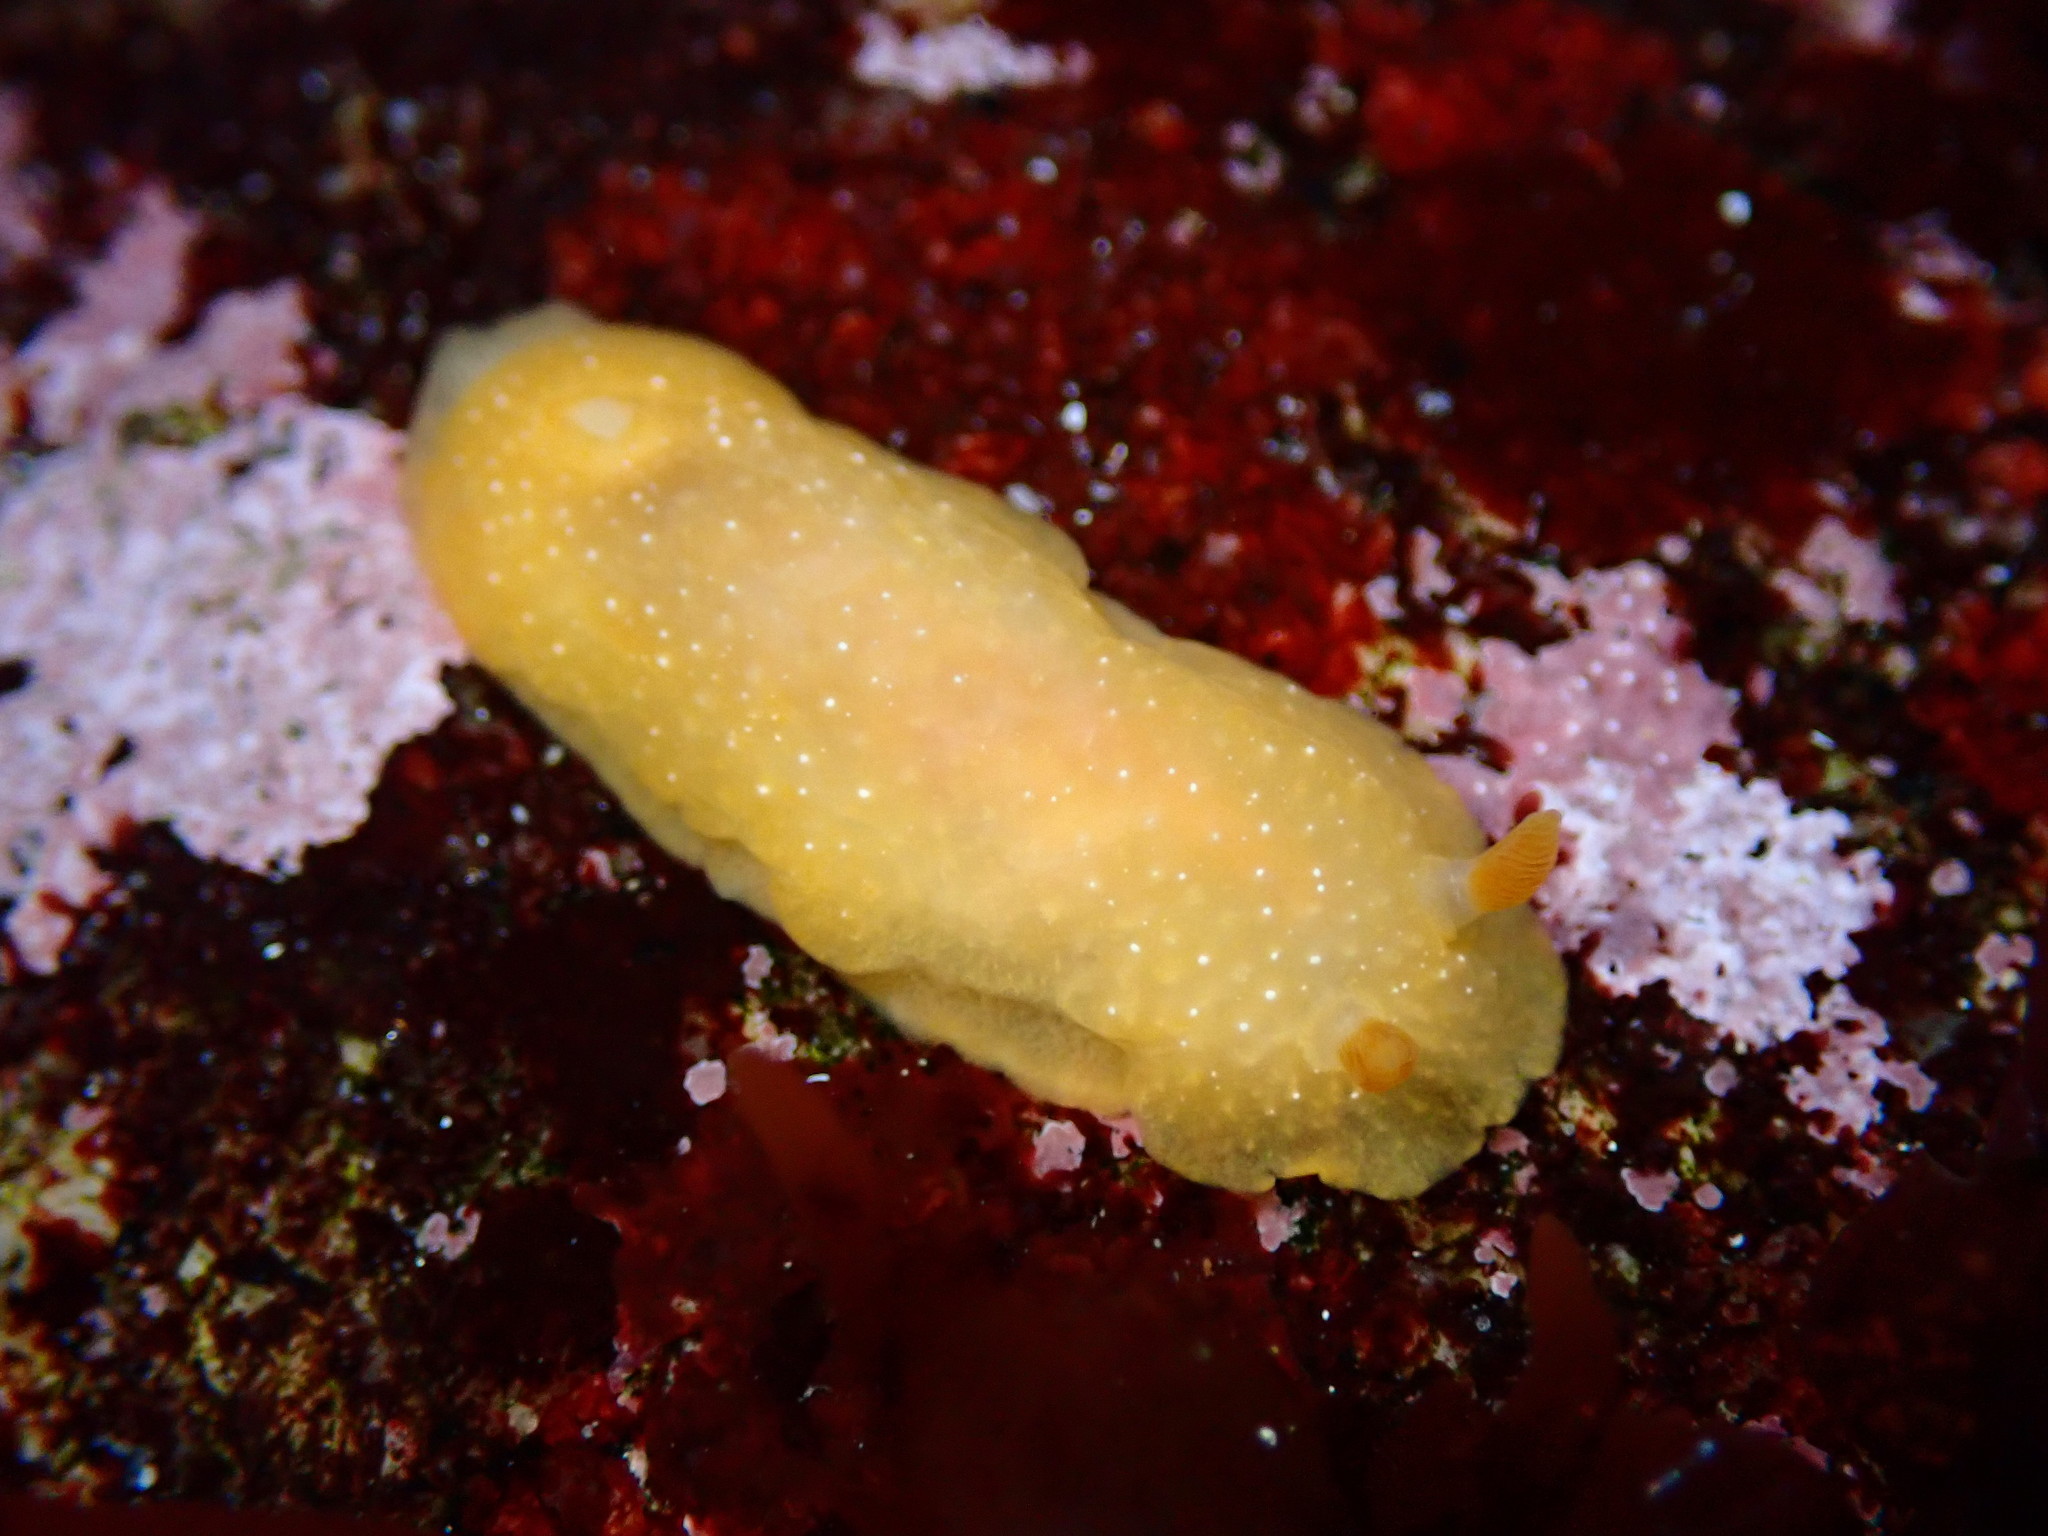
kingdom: Animalia
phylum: Mollusca
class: Gastropoda
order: Nudibranchia
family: Dendrodorididae
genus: Doriopsilla
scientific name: Doriopsilla fulva
